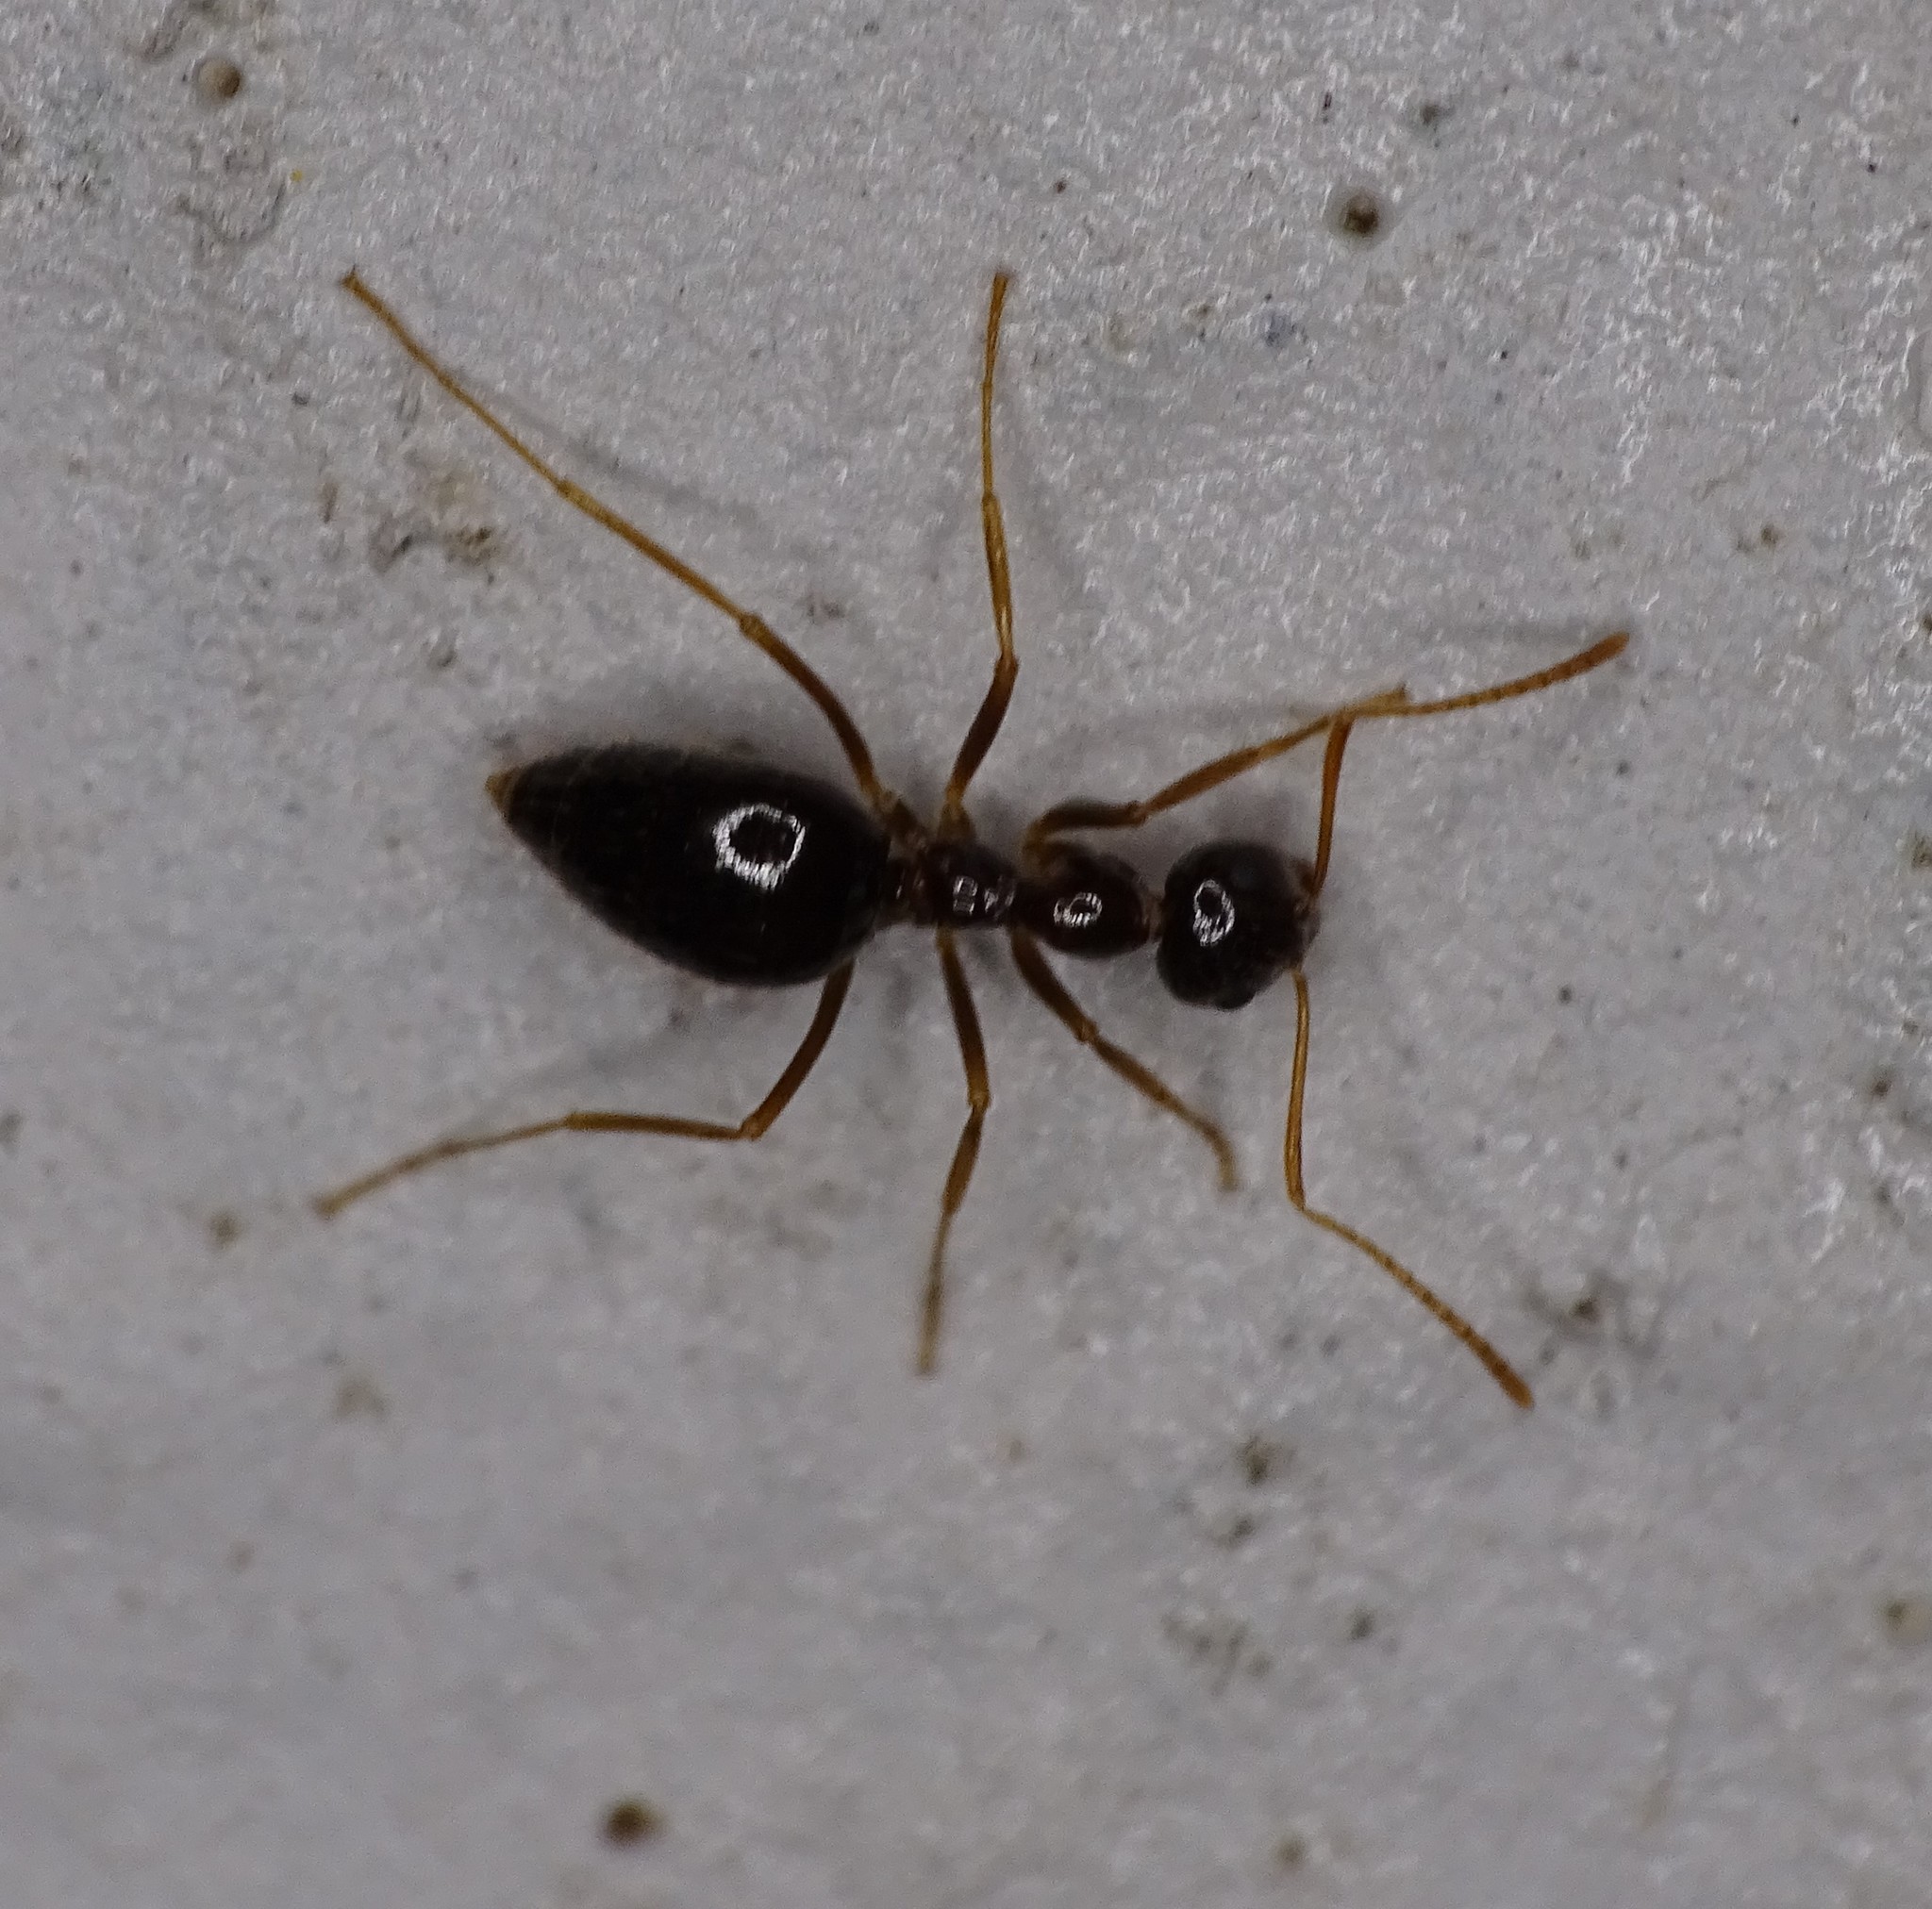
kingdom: Animalia
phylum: Arthropoda
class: Insecta
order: Hymenoptera
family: Formicidae
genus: Prenolepis
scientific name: Prenolepis imparis
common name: Small honey ant
